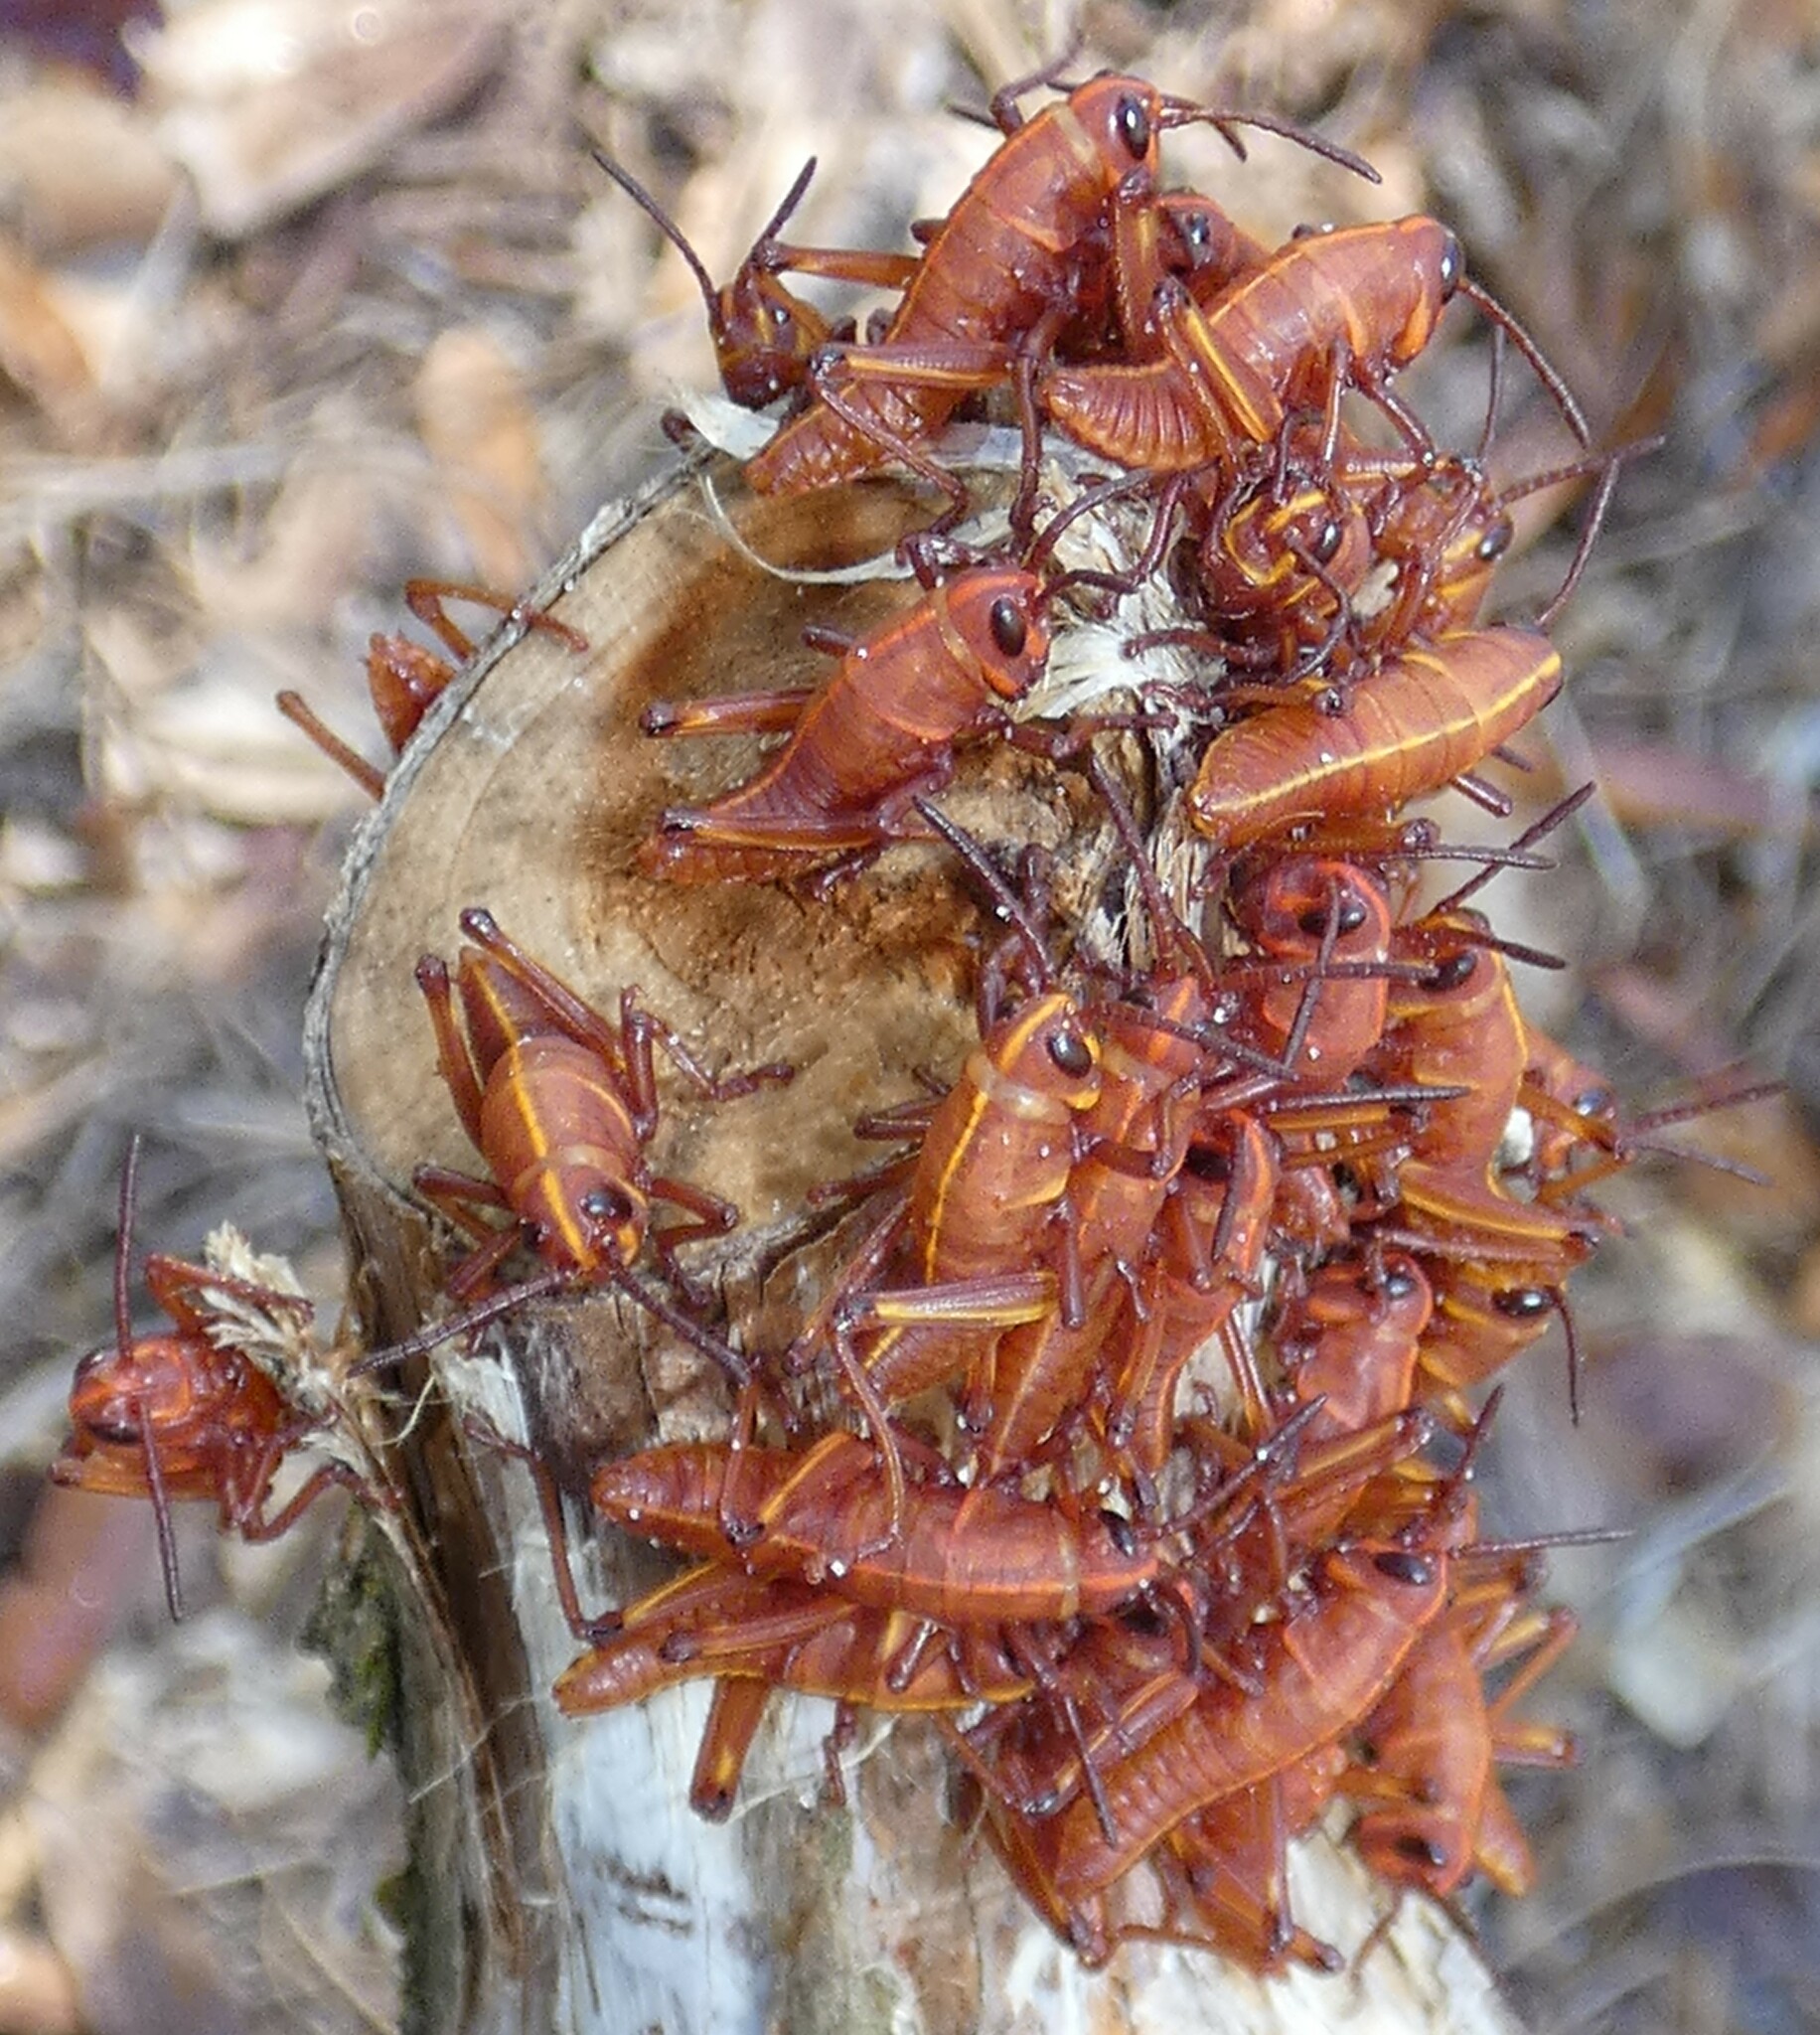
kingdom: Animalia
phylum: Arthropoda
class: Insecta
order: Orthoptera
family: Romaleidae
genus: Romalea
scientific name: Romalea microptera
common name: Eastern lubber grasshopper
